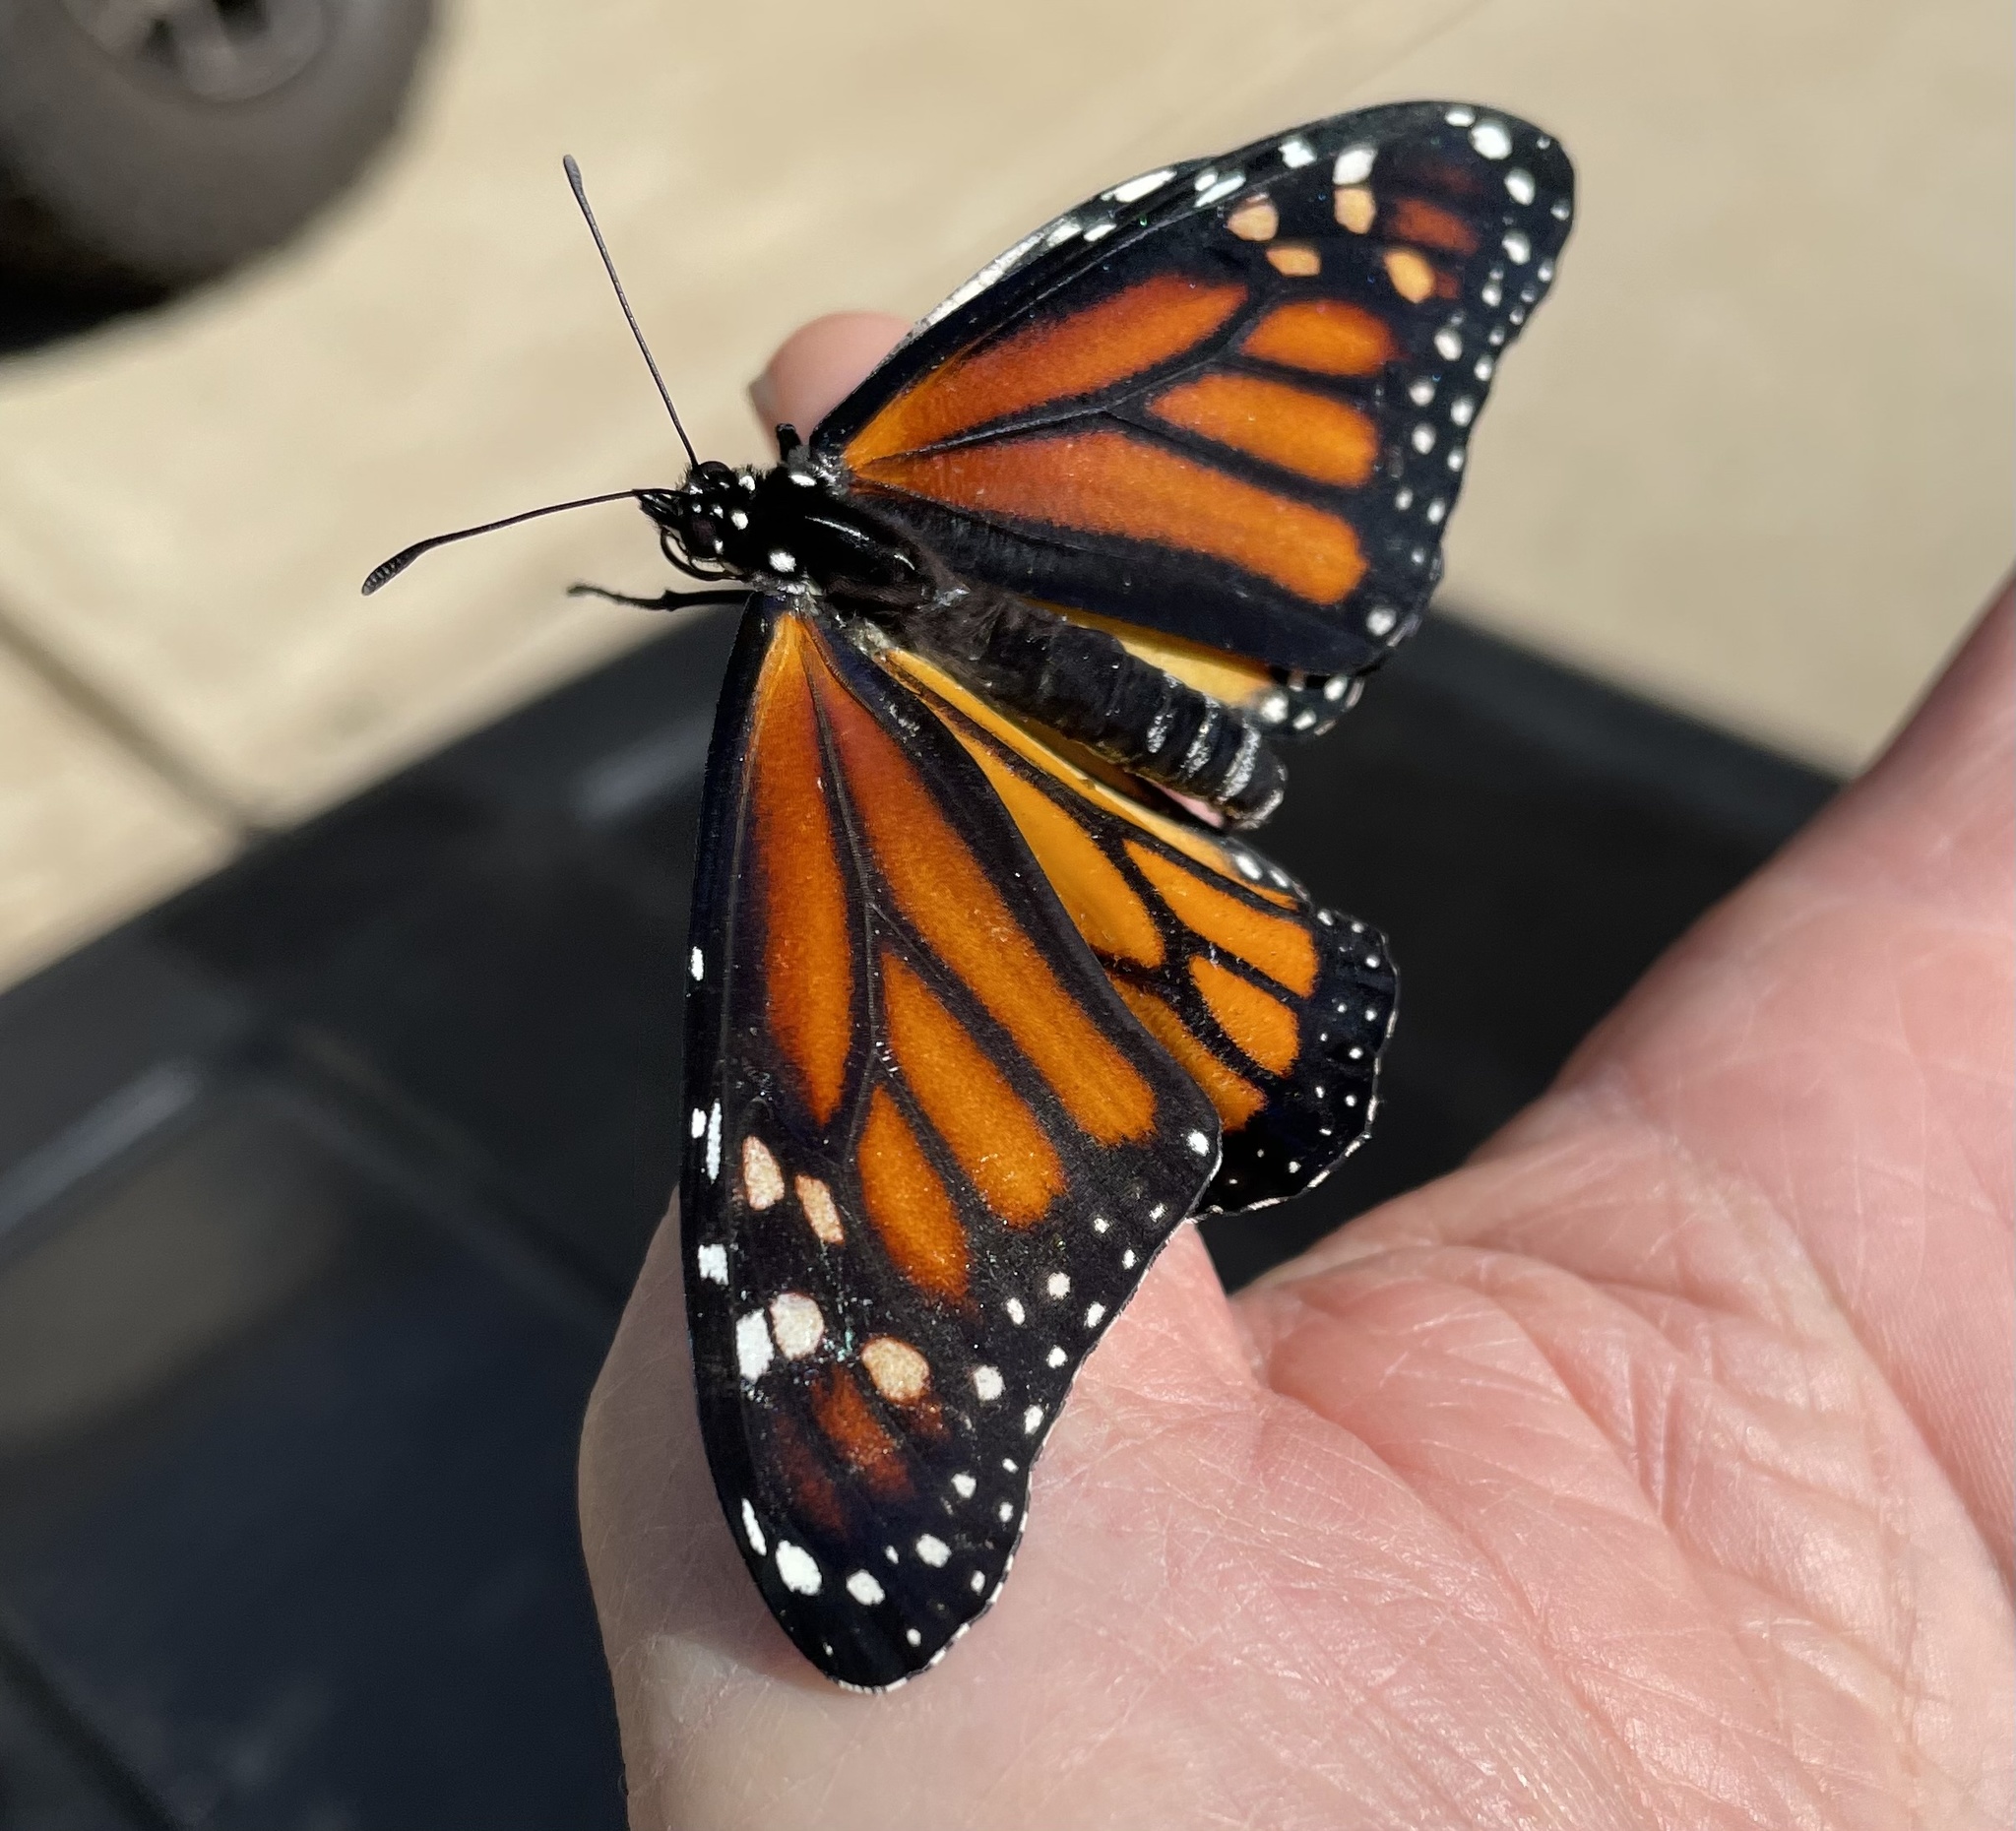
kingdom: Animalia
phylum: Arthropoda
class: Insecta
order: Lepidoptera
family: Nymphalidae
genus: Danaus
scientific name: Danaus plexippus
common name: Monarch
